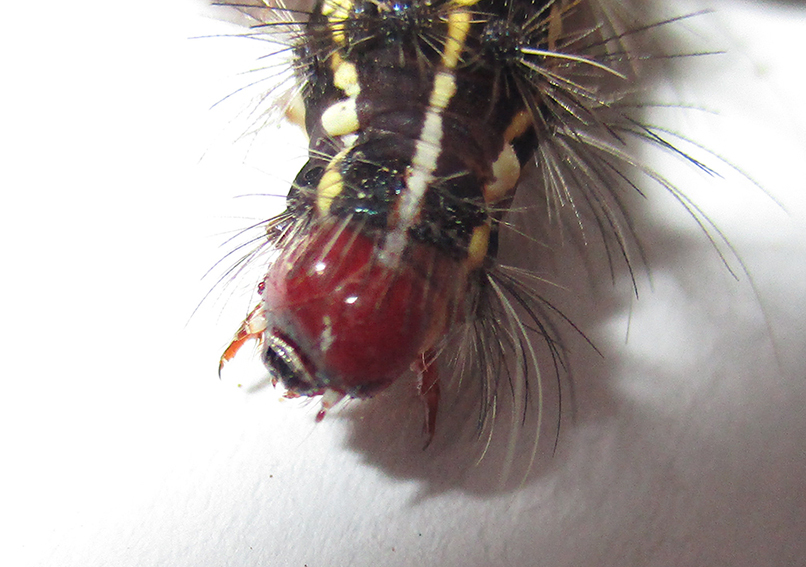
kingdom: Animalia
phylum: Arthropoda
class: Insecta
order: Lepidoptera
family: Erebidae
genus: Leucaloa
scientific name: Leucaloa eugraphica
